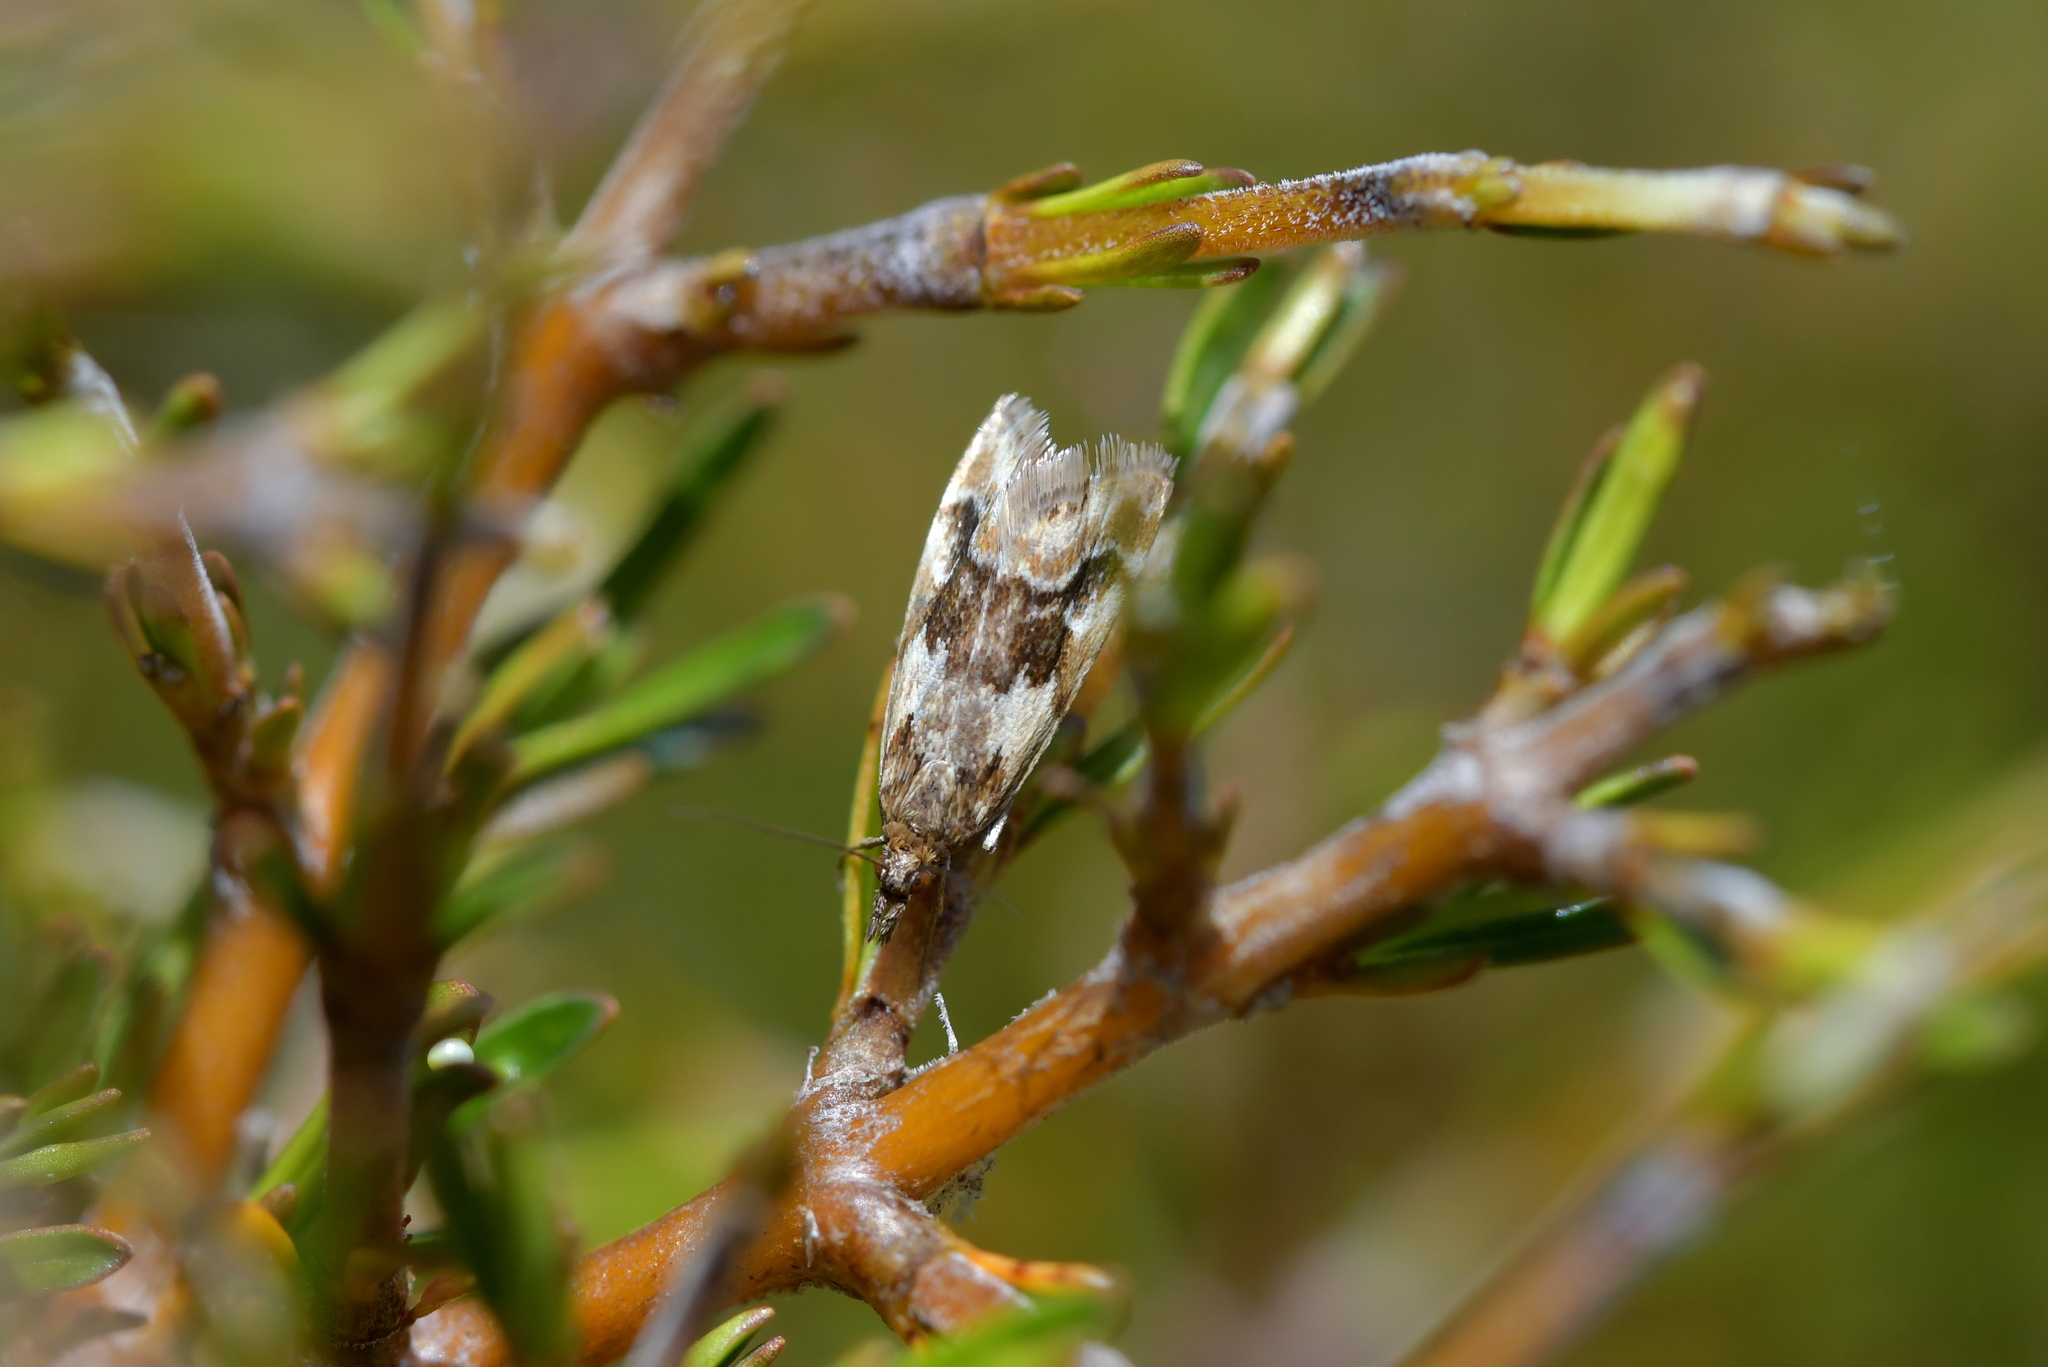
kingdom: Animalia
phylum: Arthropoda
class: Insecta
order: Lepidoptera
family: Crambidae
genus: Glaucocharis
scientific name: Glaucocharis helioctypa
